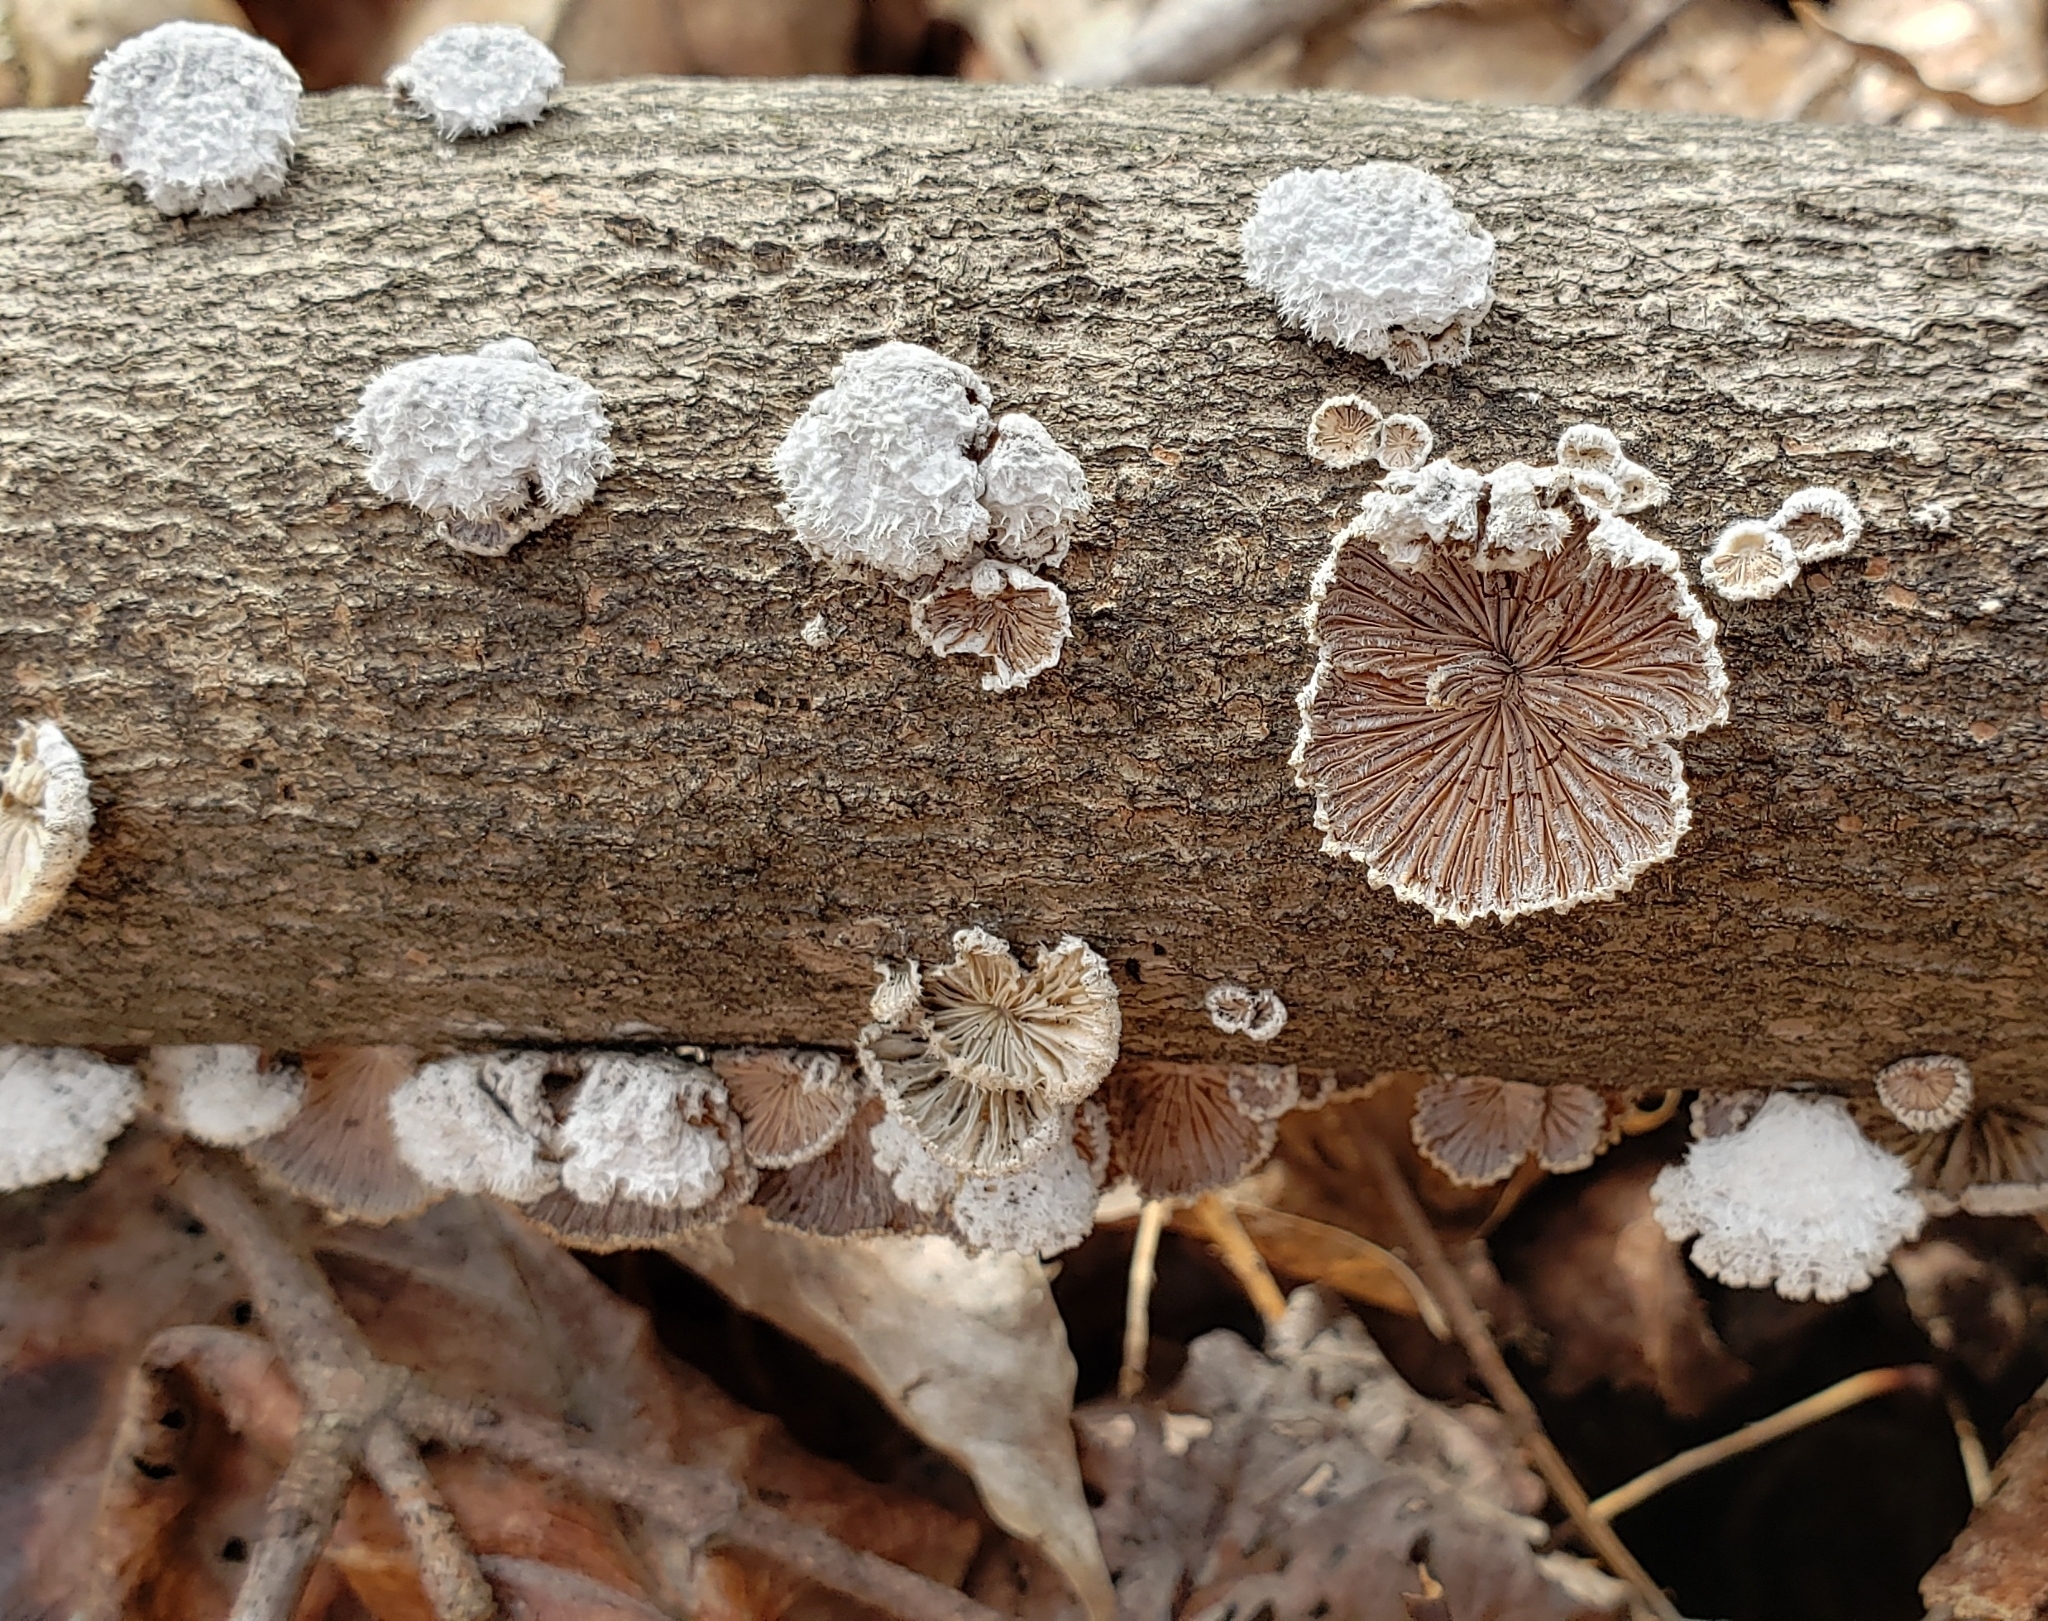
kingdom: Fungi
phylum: Basidiomycota
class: Agaricomycetes
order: Agaricales
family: Schizophyllaceae
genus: Schizophyllum
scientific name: Schizophyllum commune
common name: Common porecrust
